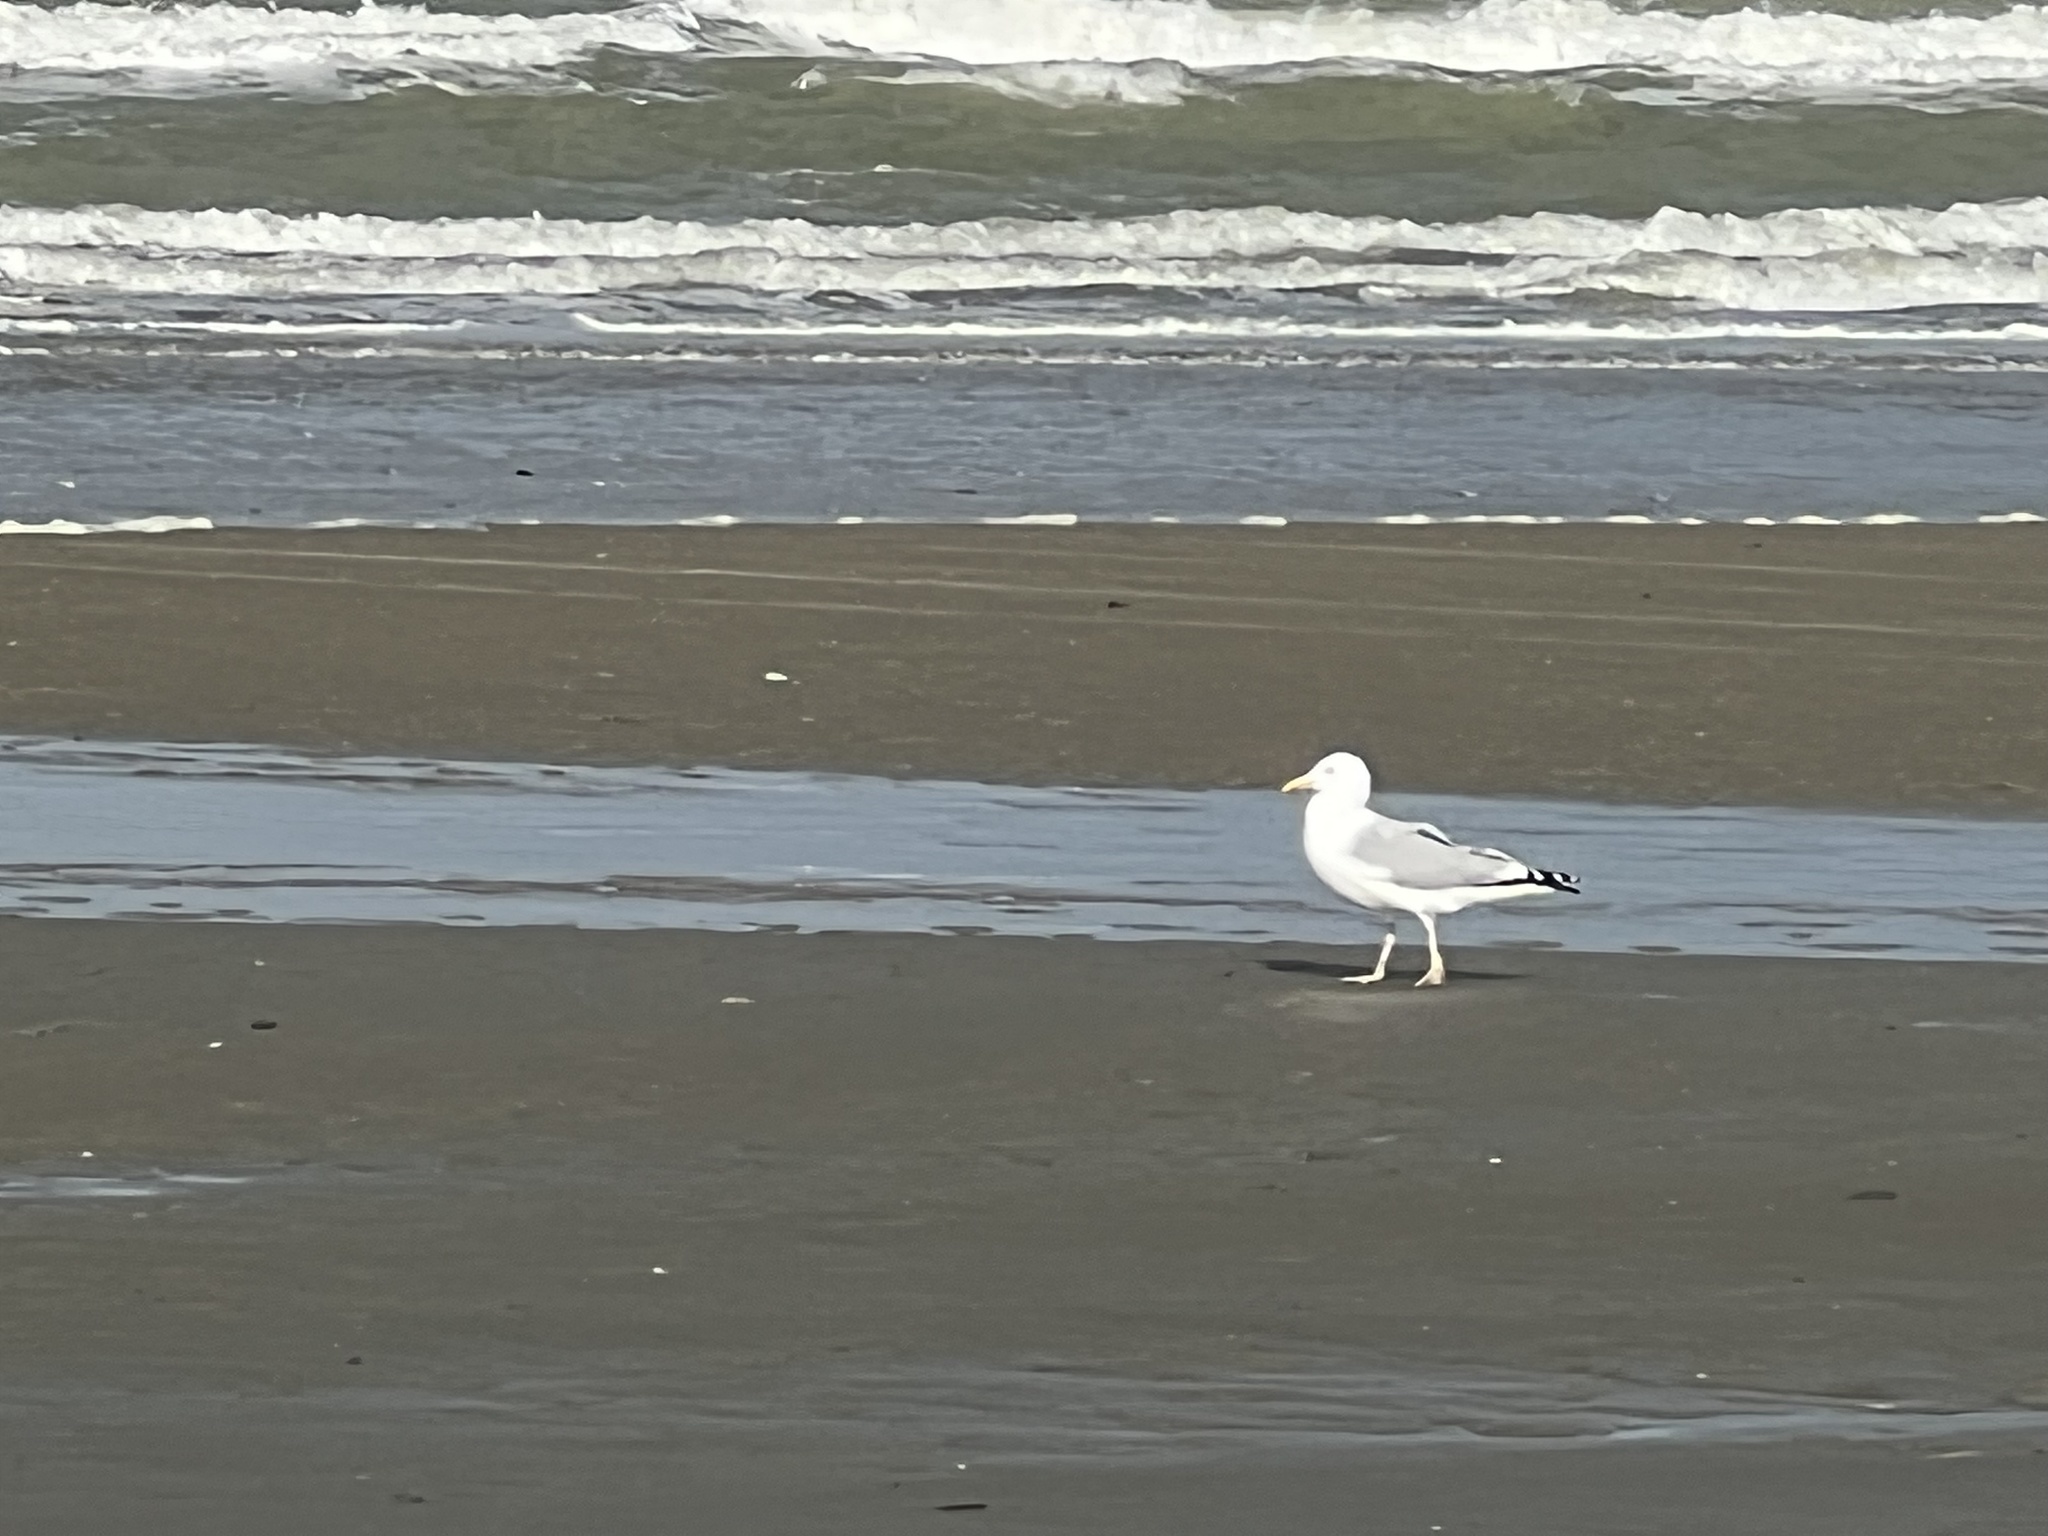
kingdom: Animalia
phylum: Chordata
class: Aves
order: Charadriiformes
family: Laridae
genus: Larus
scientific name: Larus argentatus
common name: Herring gull
